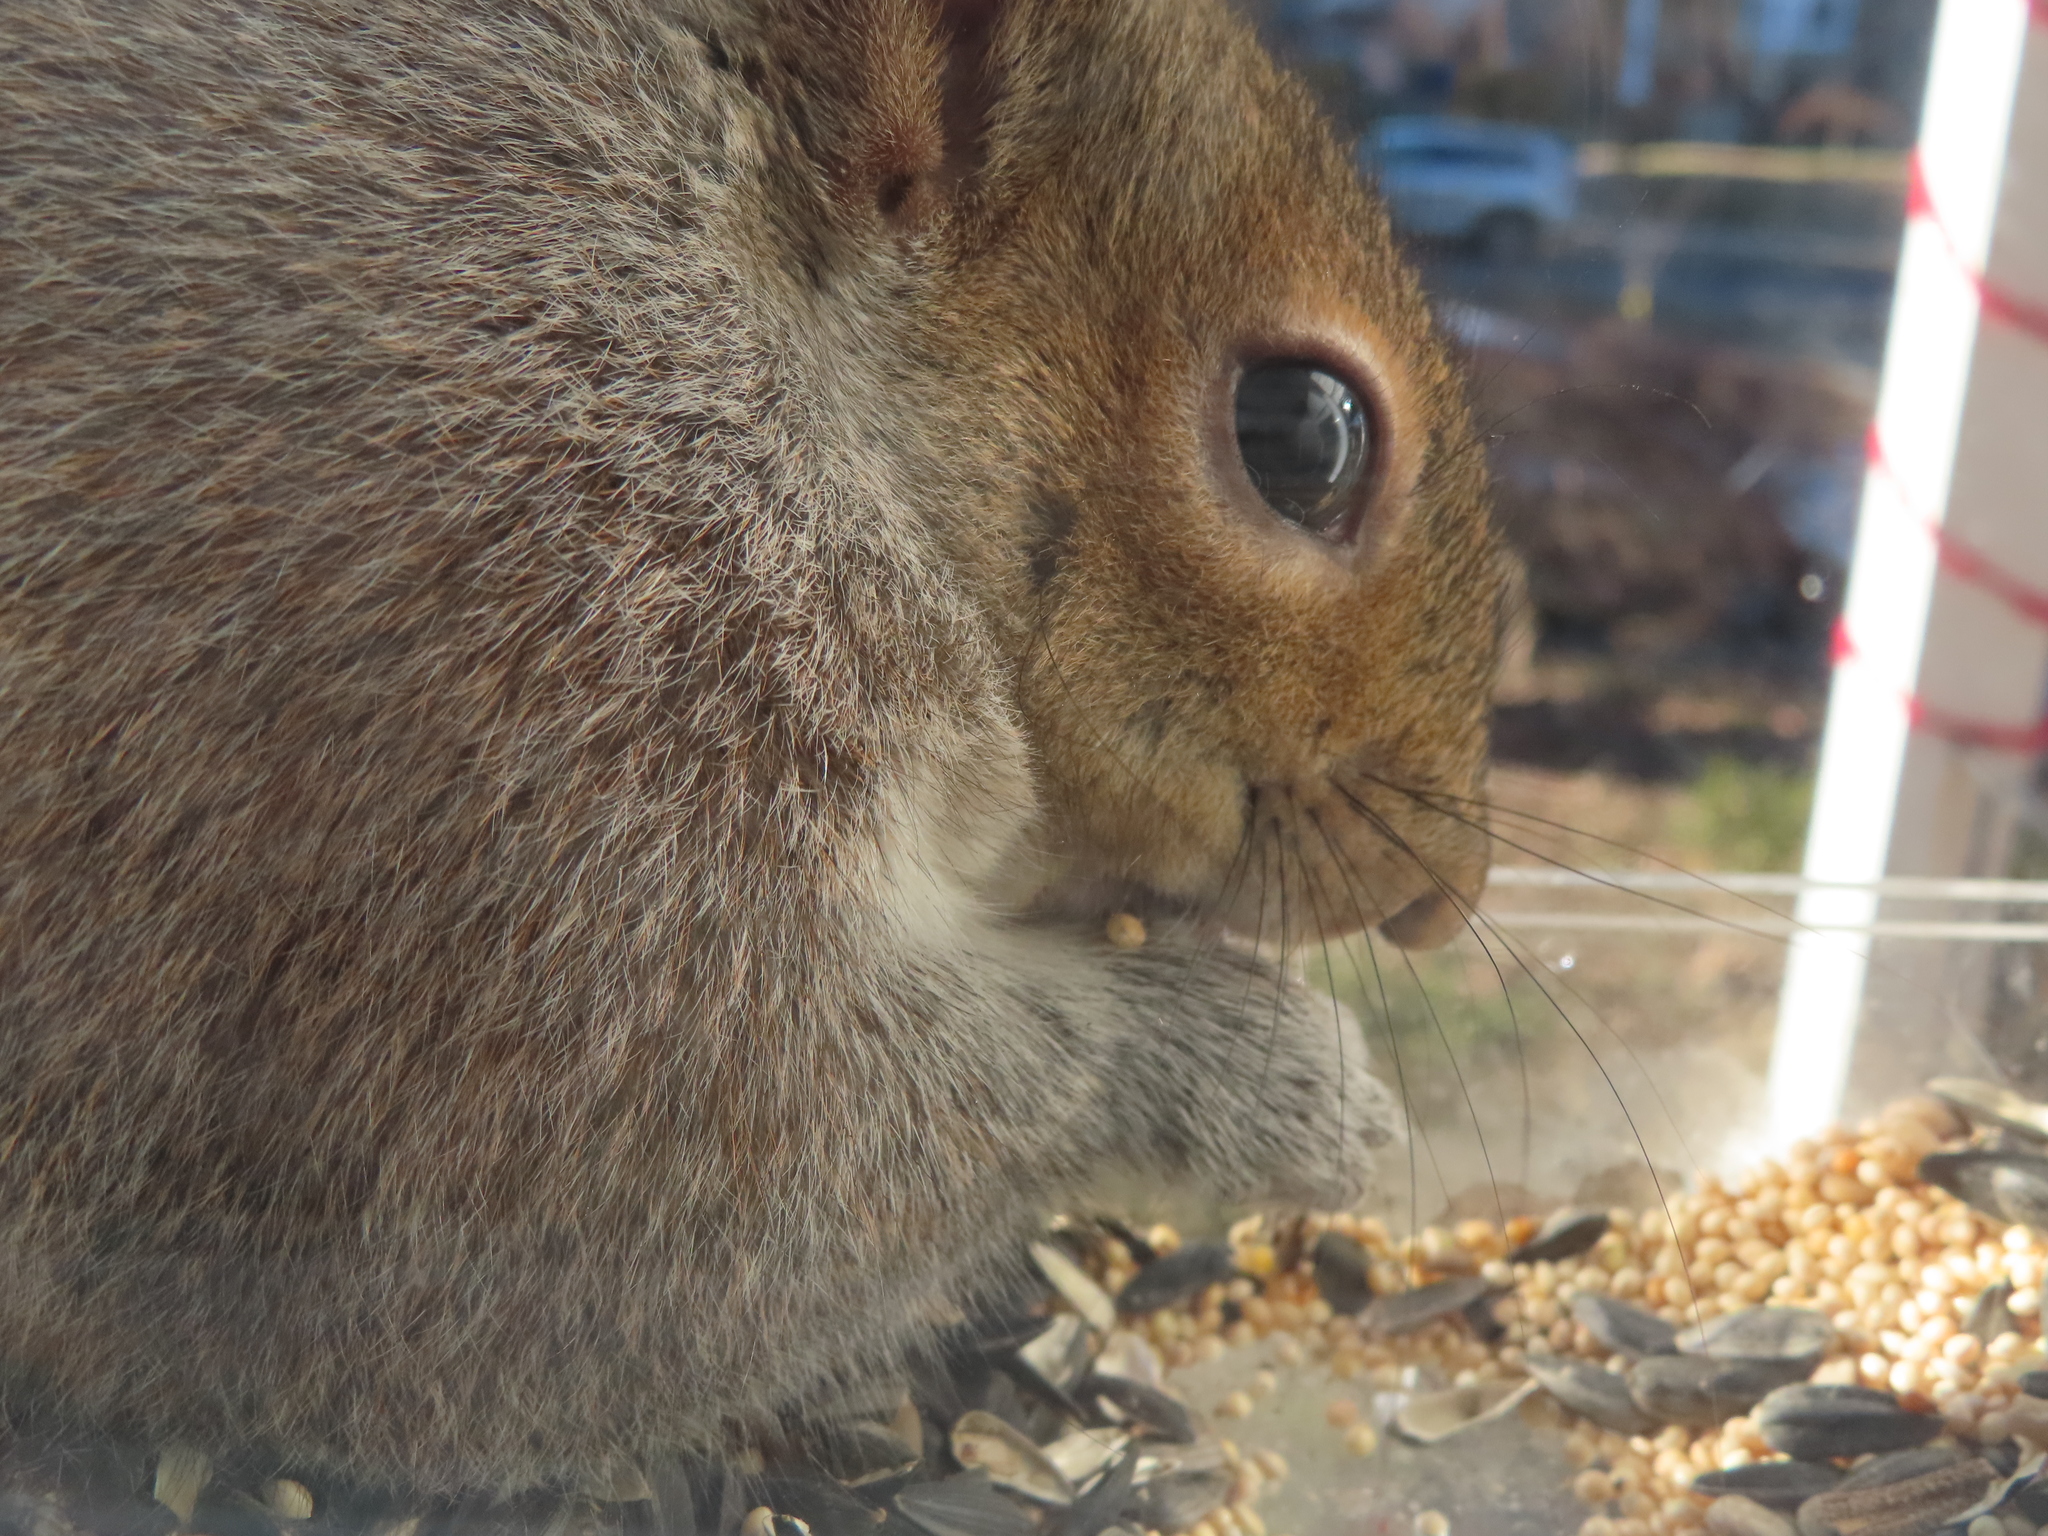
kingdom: Animalia
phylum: Chordata
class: Mammalia
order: Rodentia
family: Sciuridae
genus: Sciurus
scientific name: Sciurus carolinensis
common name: Eastern gray squirrel
